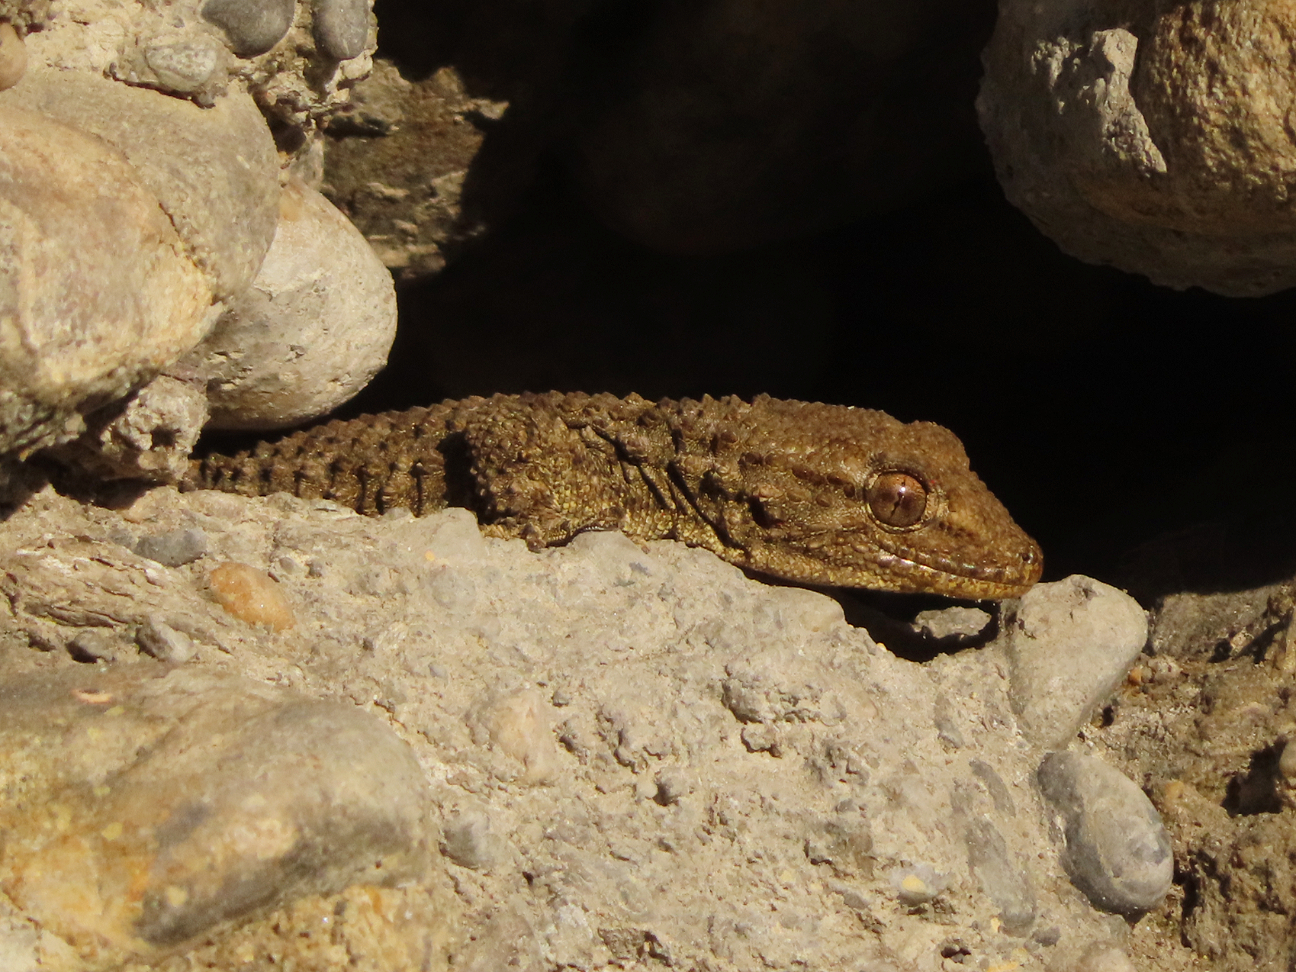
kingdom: Animalia
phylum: Chordata
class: Squamata
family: Phyllodactylidae
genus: Tarentola
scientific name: Tarentola mauritanica
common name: Moorish gecko
